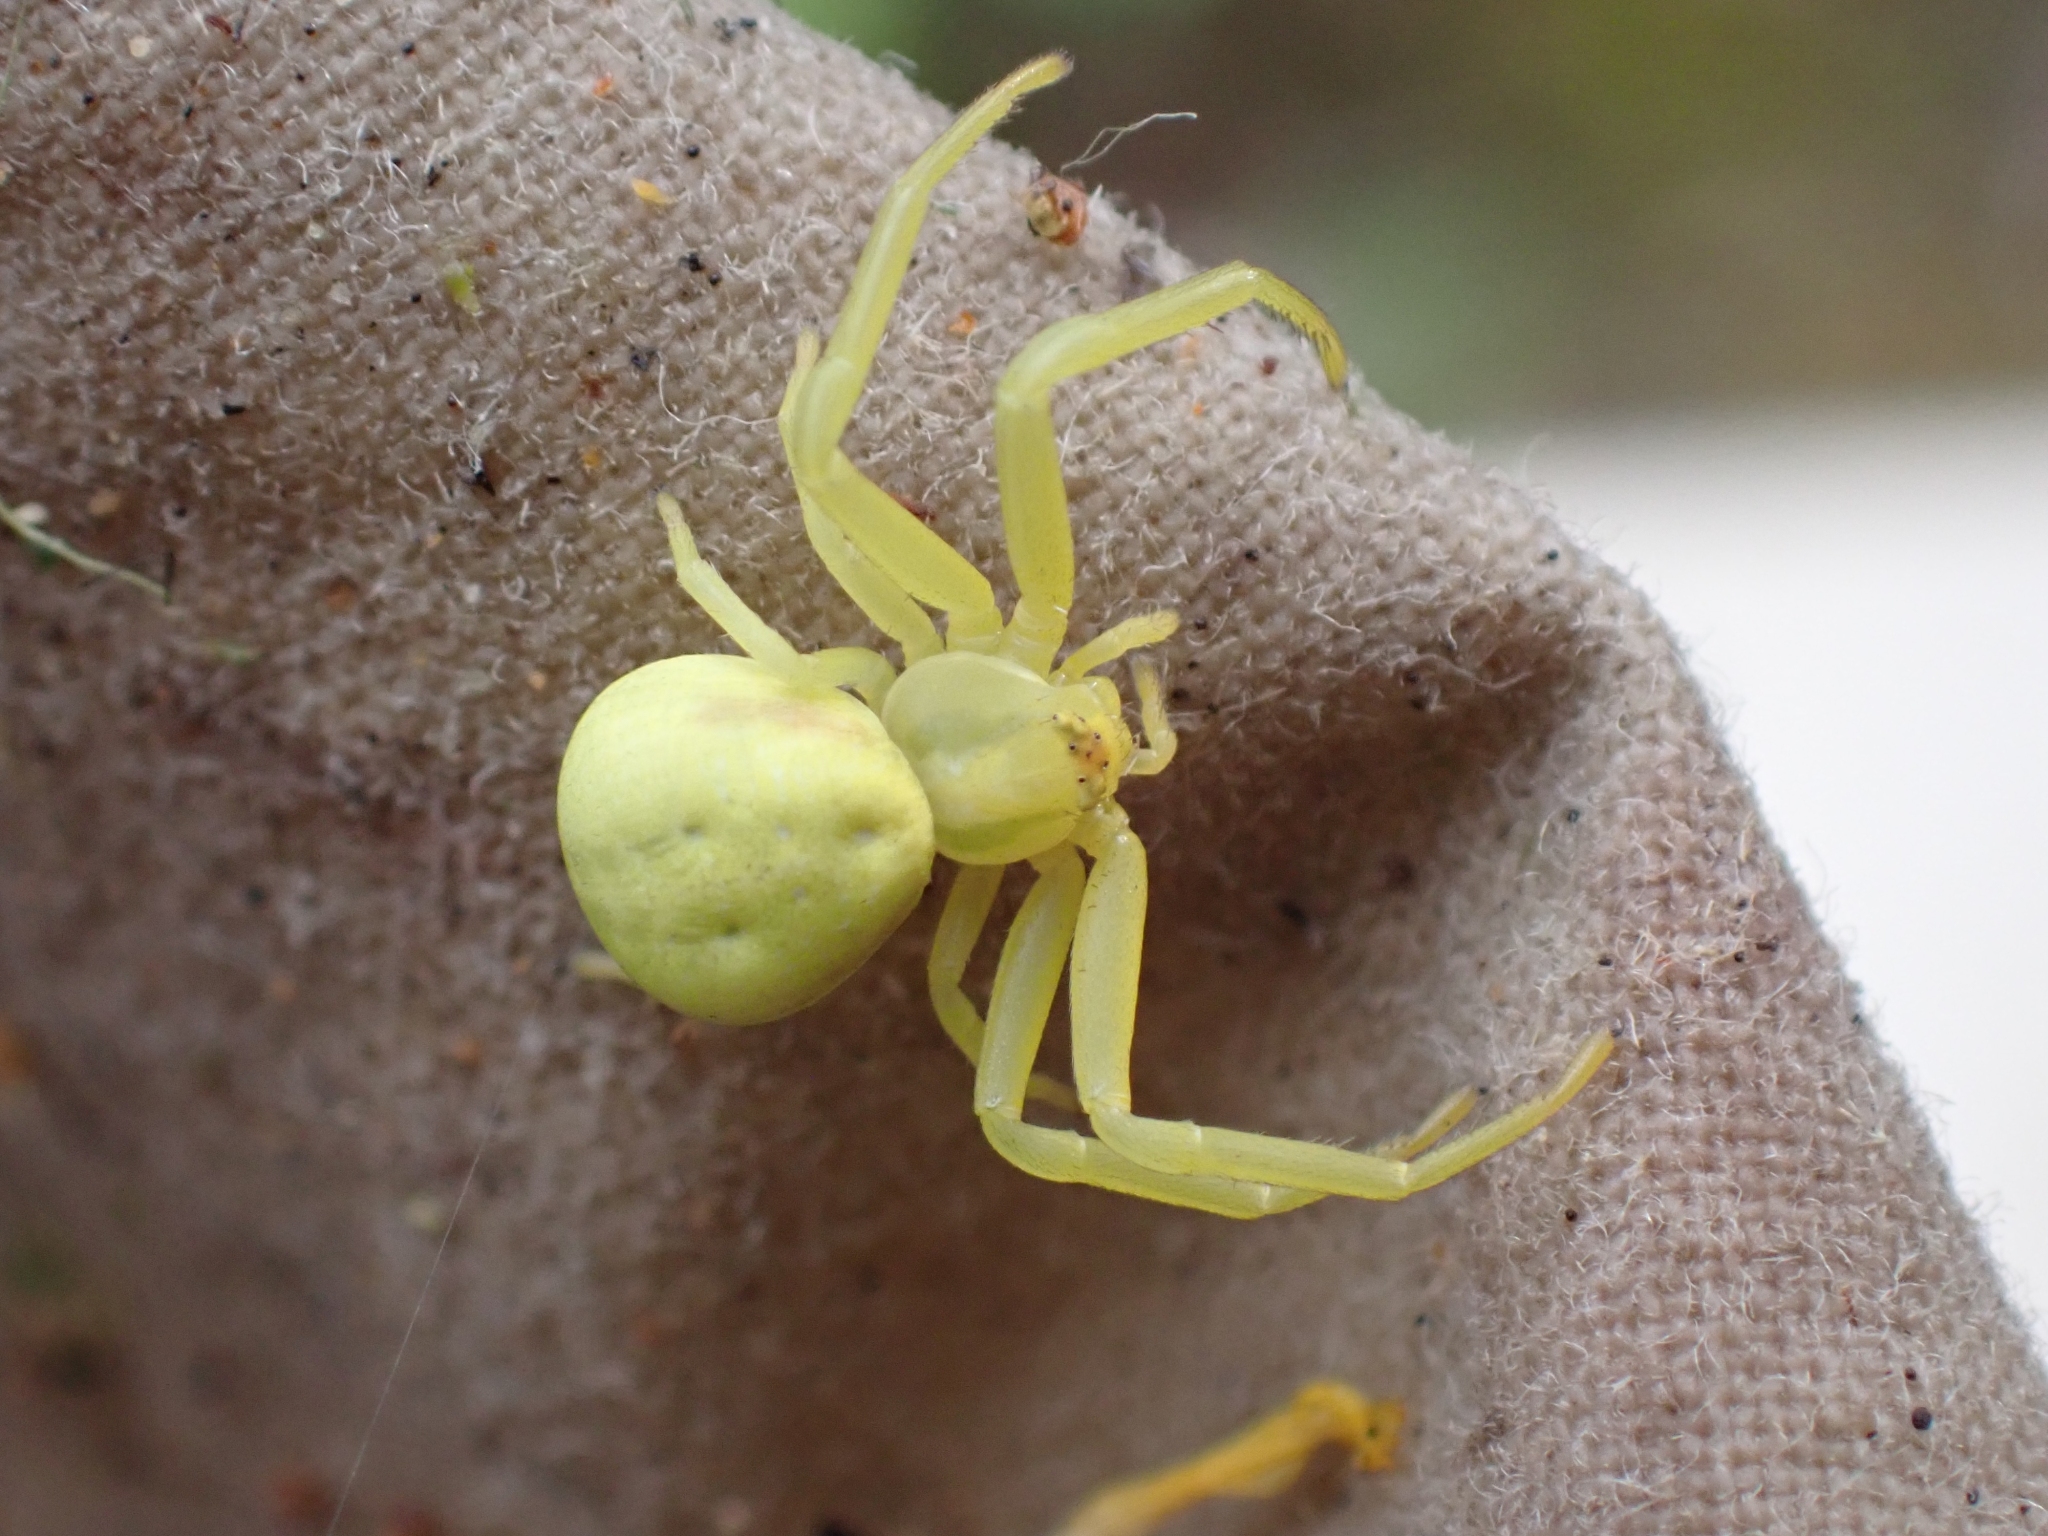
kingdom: Animalia
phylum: Arthropoda
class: Arachnida
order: Araneae
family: Thomisidae
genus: Misumena
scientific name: Misumena vatia
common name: Goldenrod crab spider
